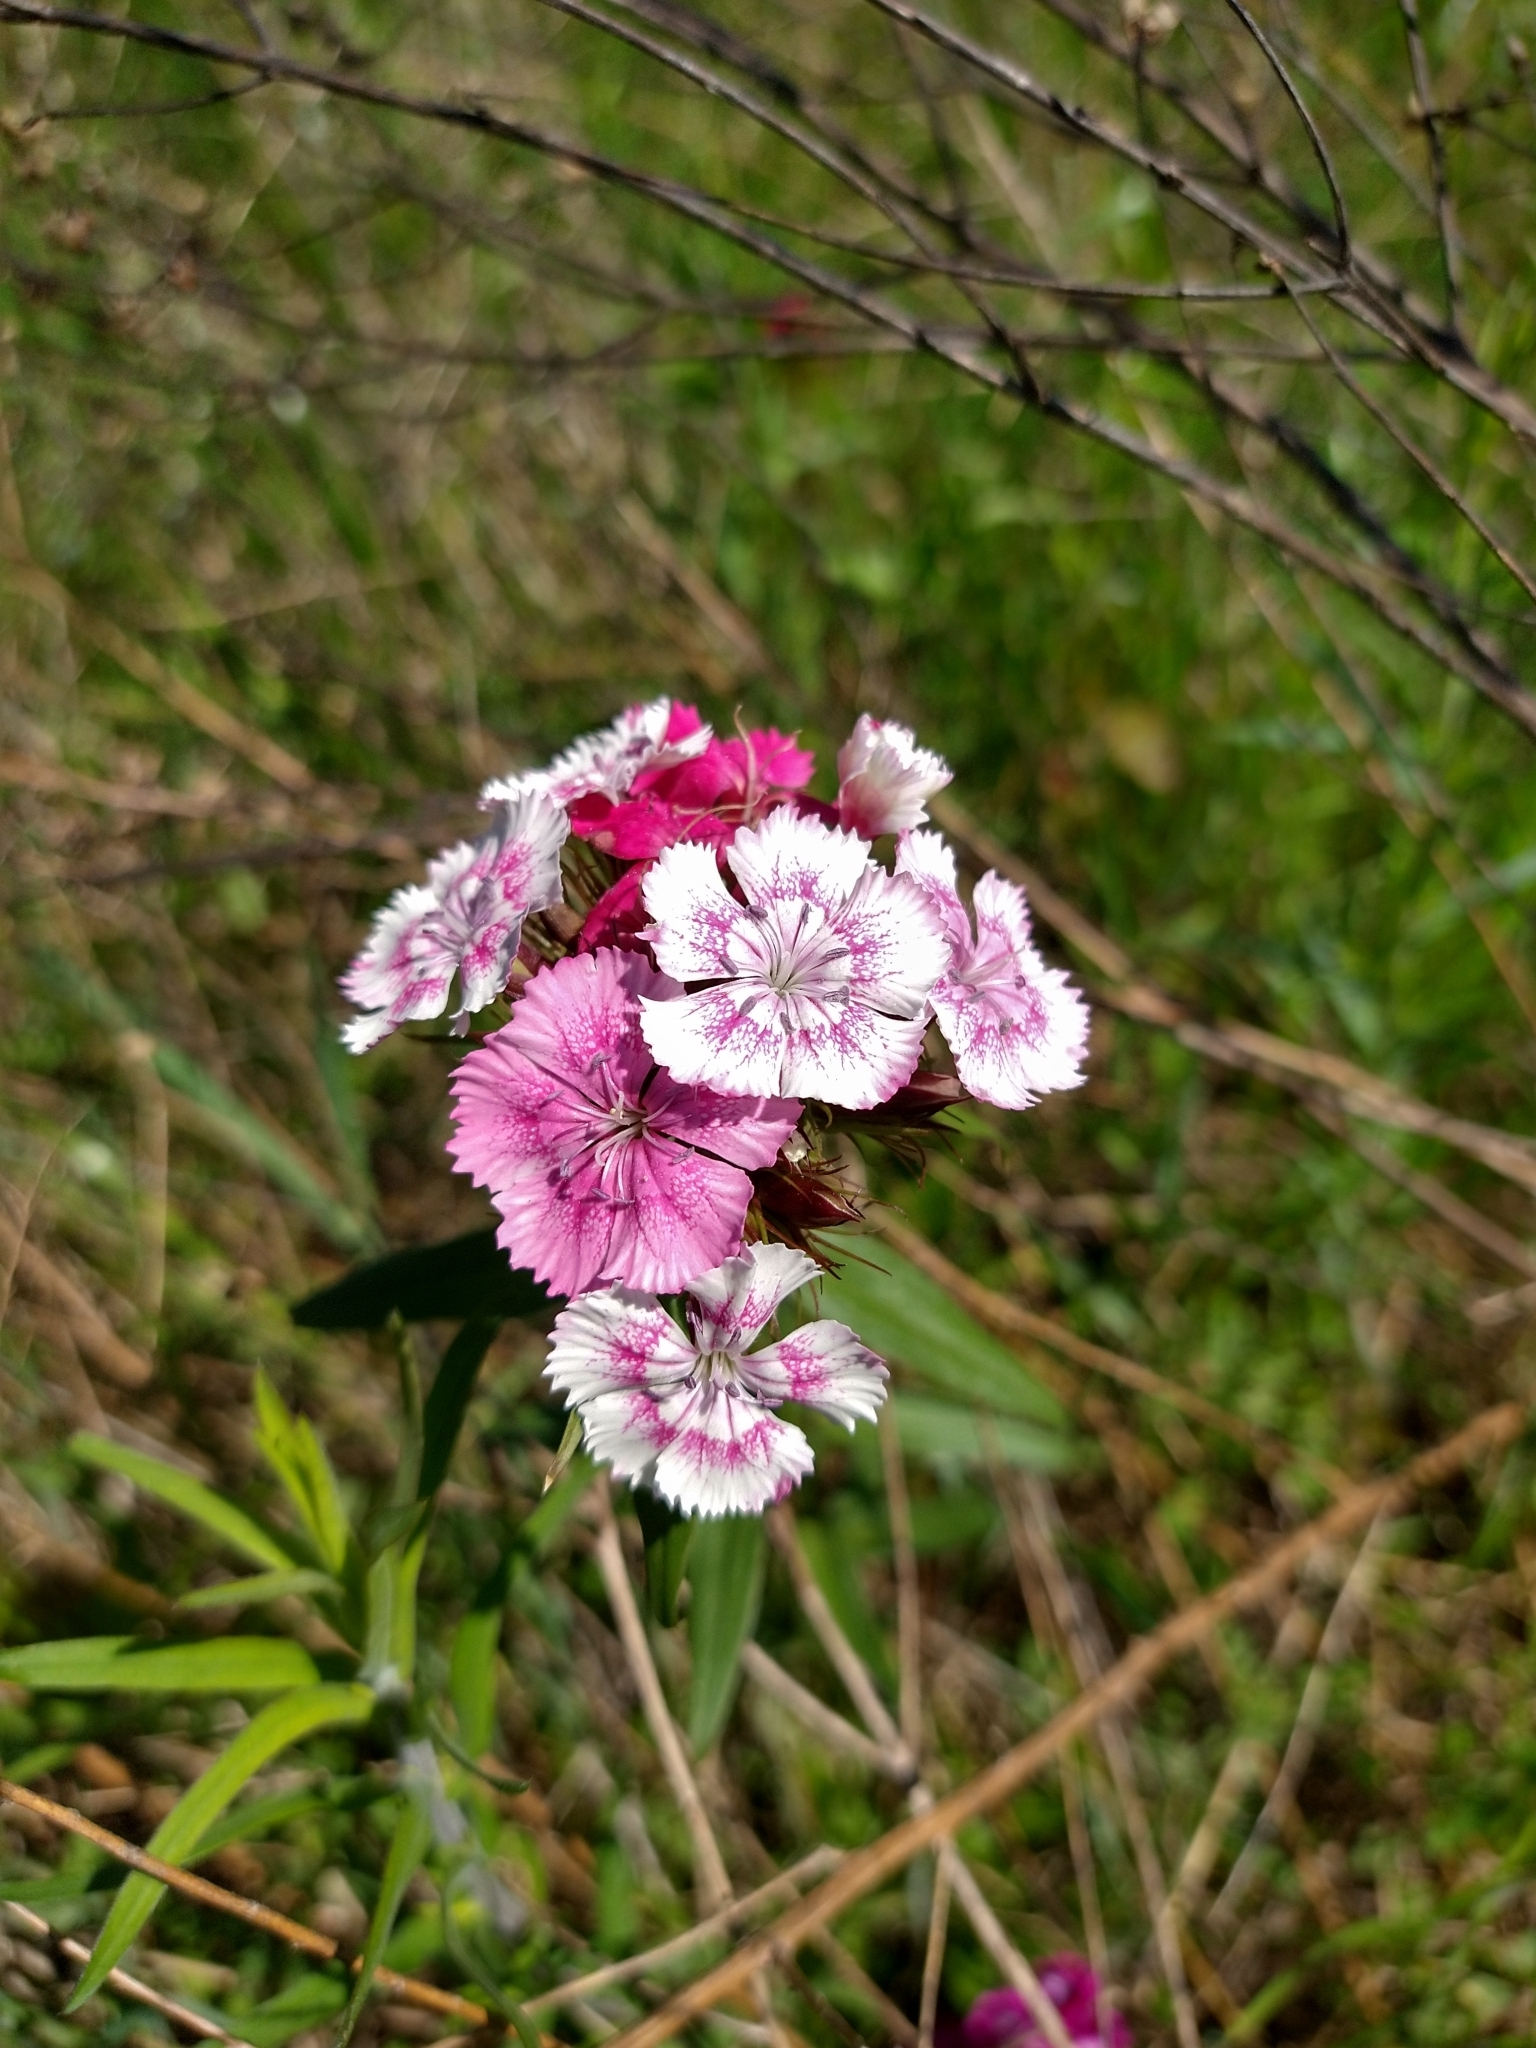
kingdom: Plantae
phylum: Tracheophyta
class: Magnoliopsida
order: Caryophyllales
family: Caryophyllaceae
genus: Dianthus
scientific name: Dianthus barbatus
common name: Sweet-william
